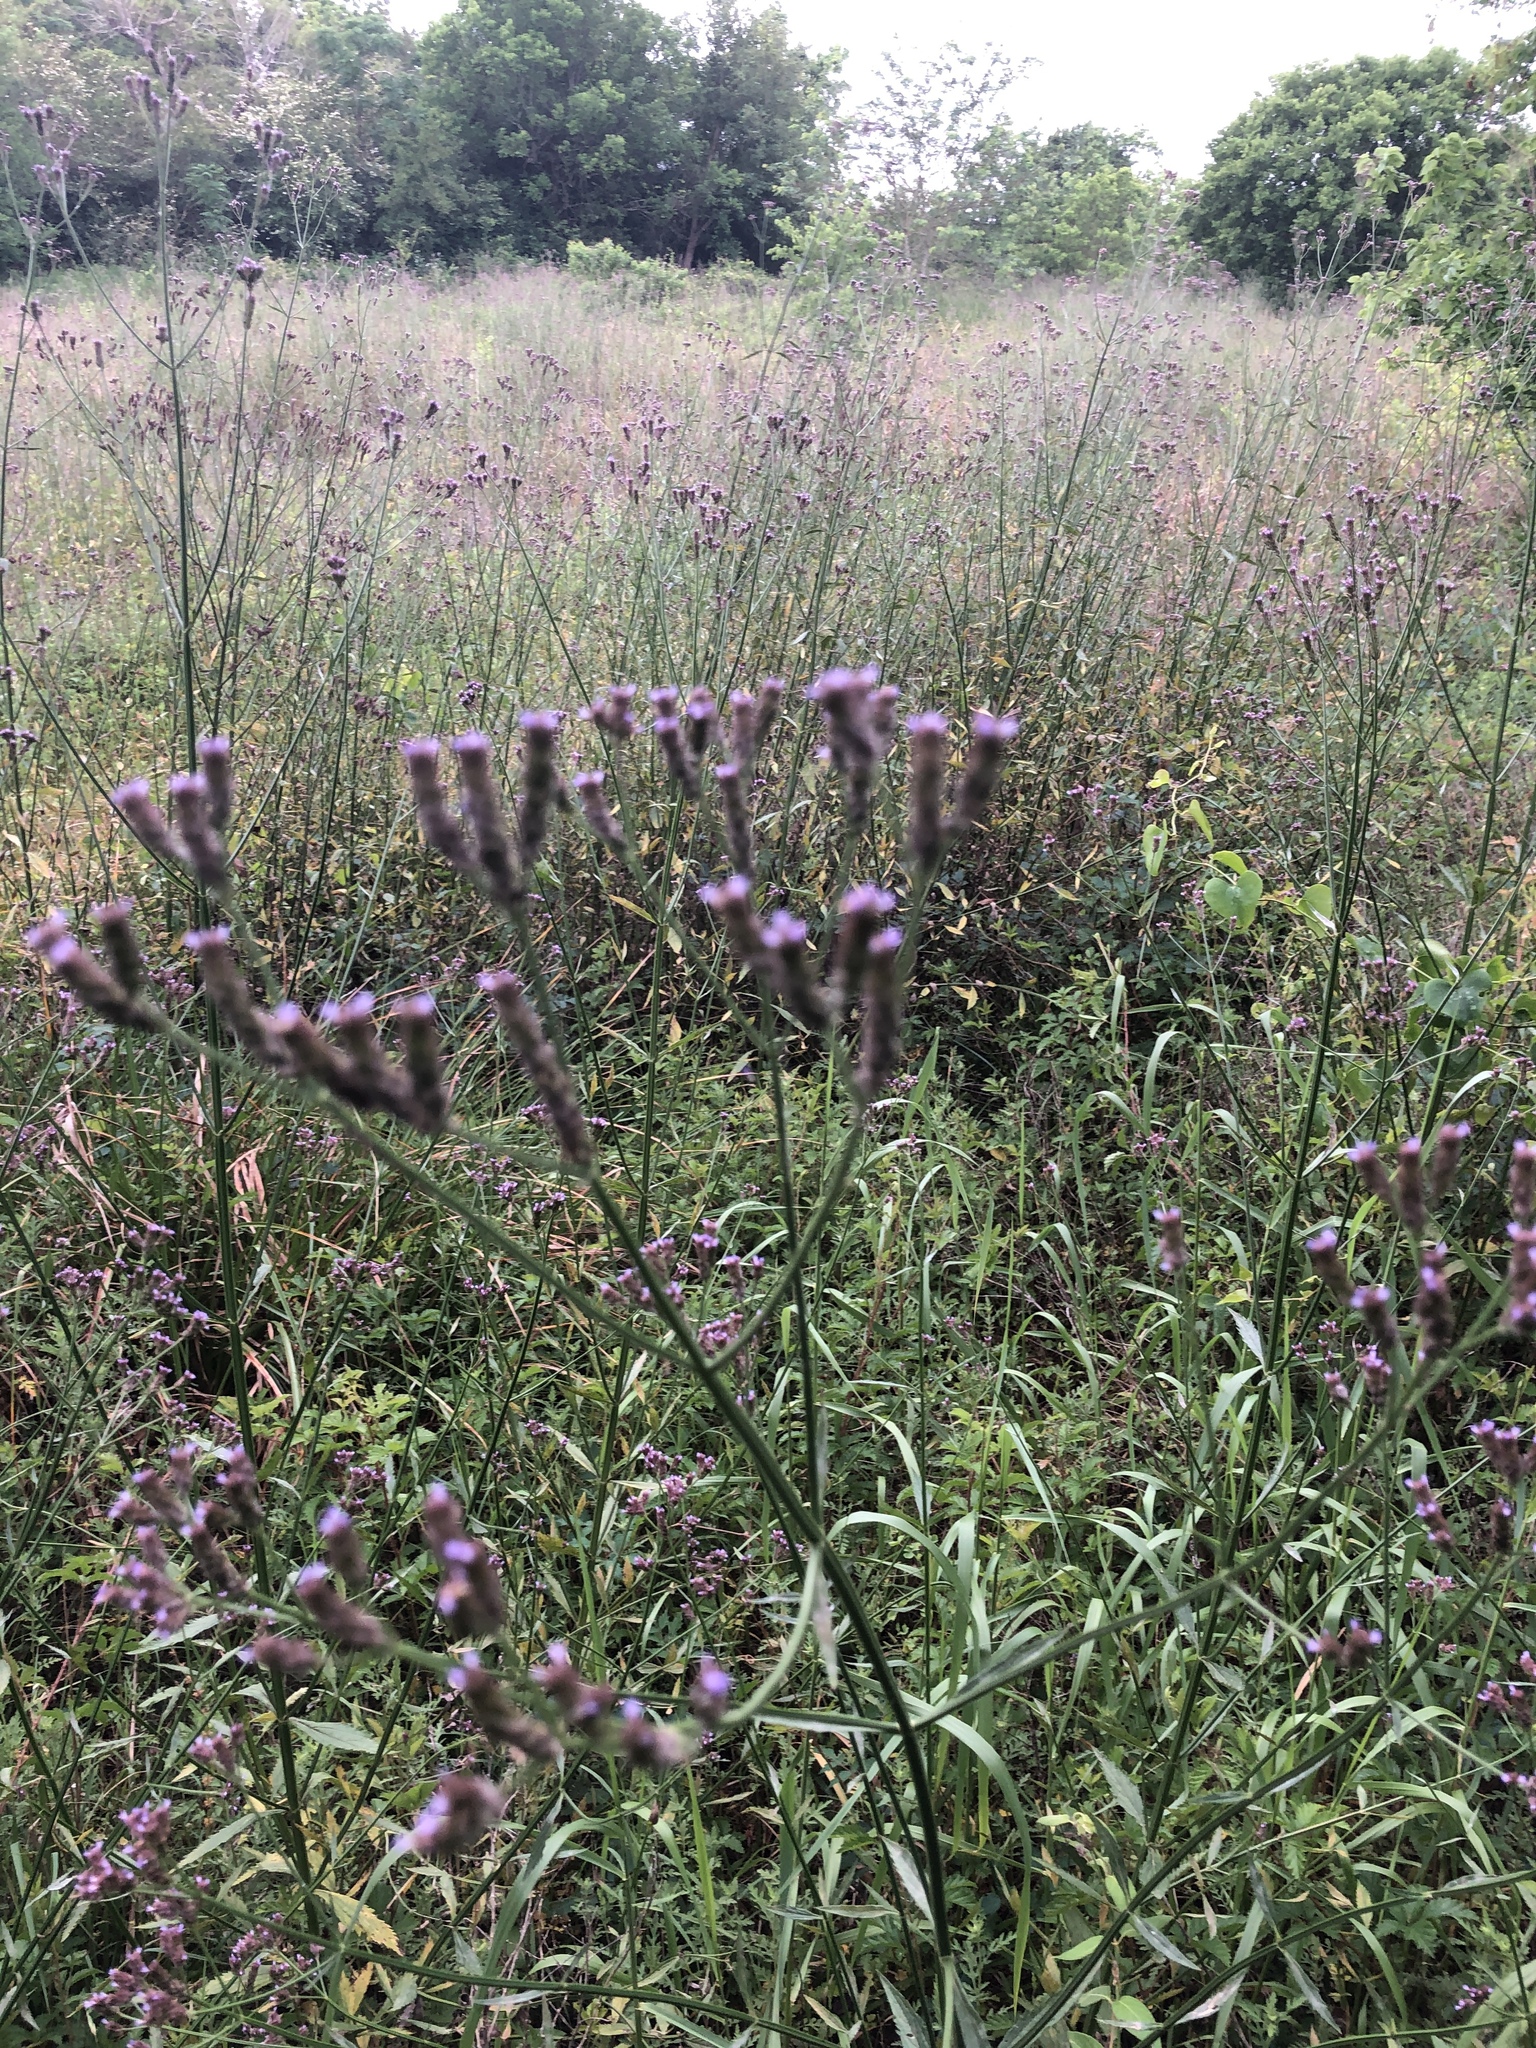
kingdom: Plantae
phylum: Tracheophyta
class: Magnoliopsida
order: Lamiales
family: Verbenaceae
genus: Verbena
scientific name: Verbena brasiliensis
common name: Brazilian vervain
